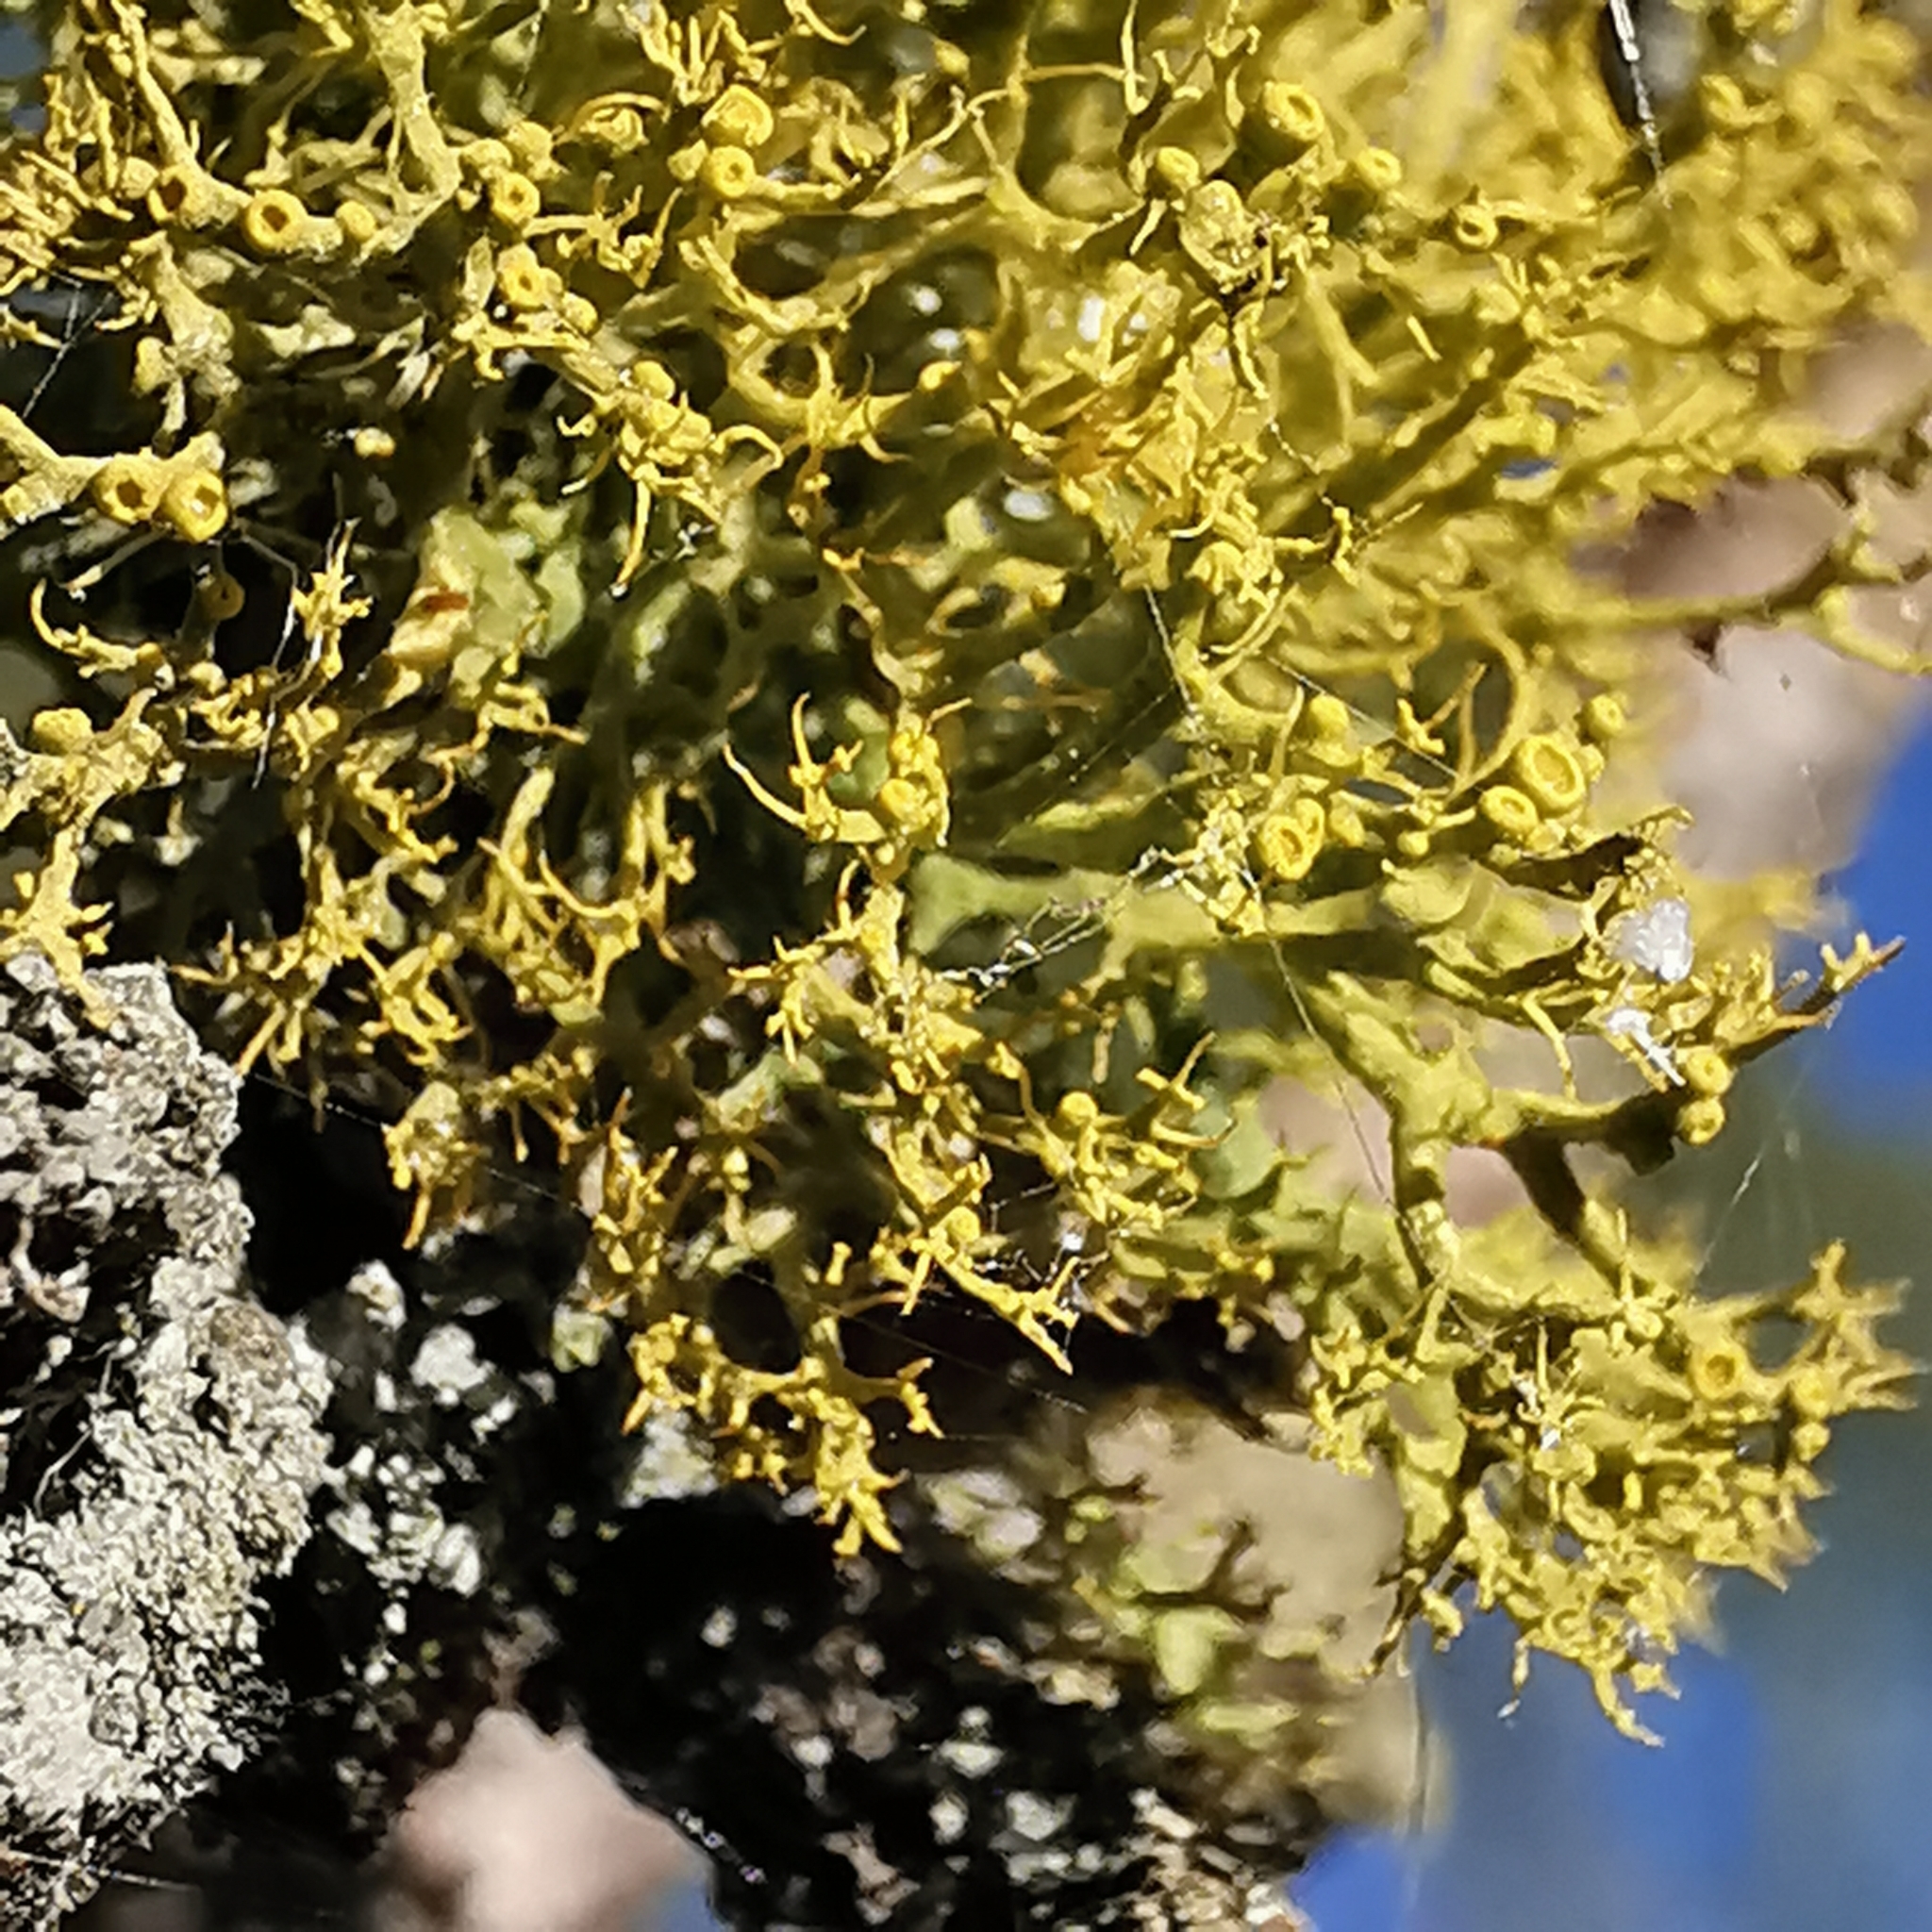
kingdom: Fungi
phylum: Ascomycota
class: Lecanoromycetes
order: Teloschistales
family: Teloschistaceae
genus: Teloschistes
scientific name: Teloschistes exilis
